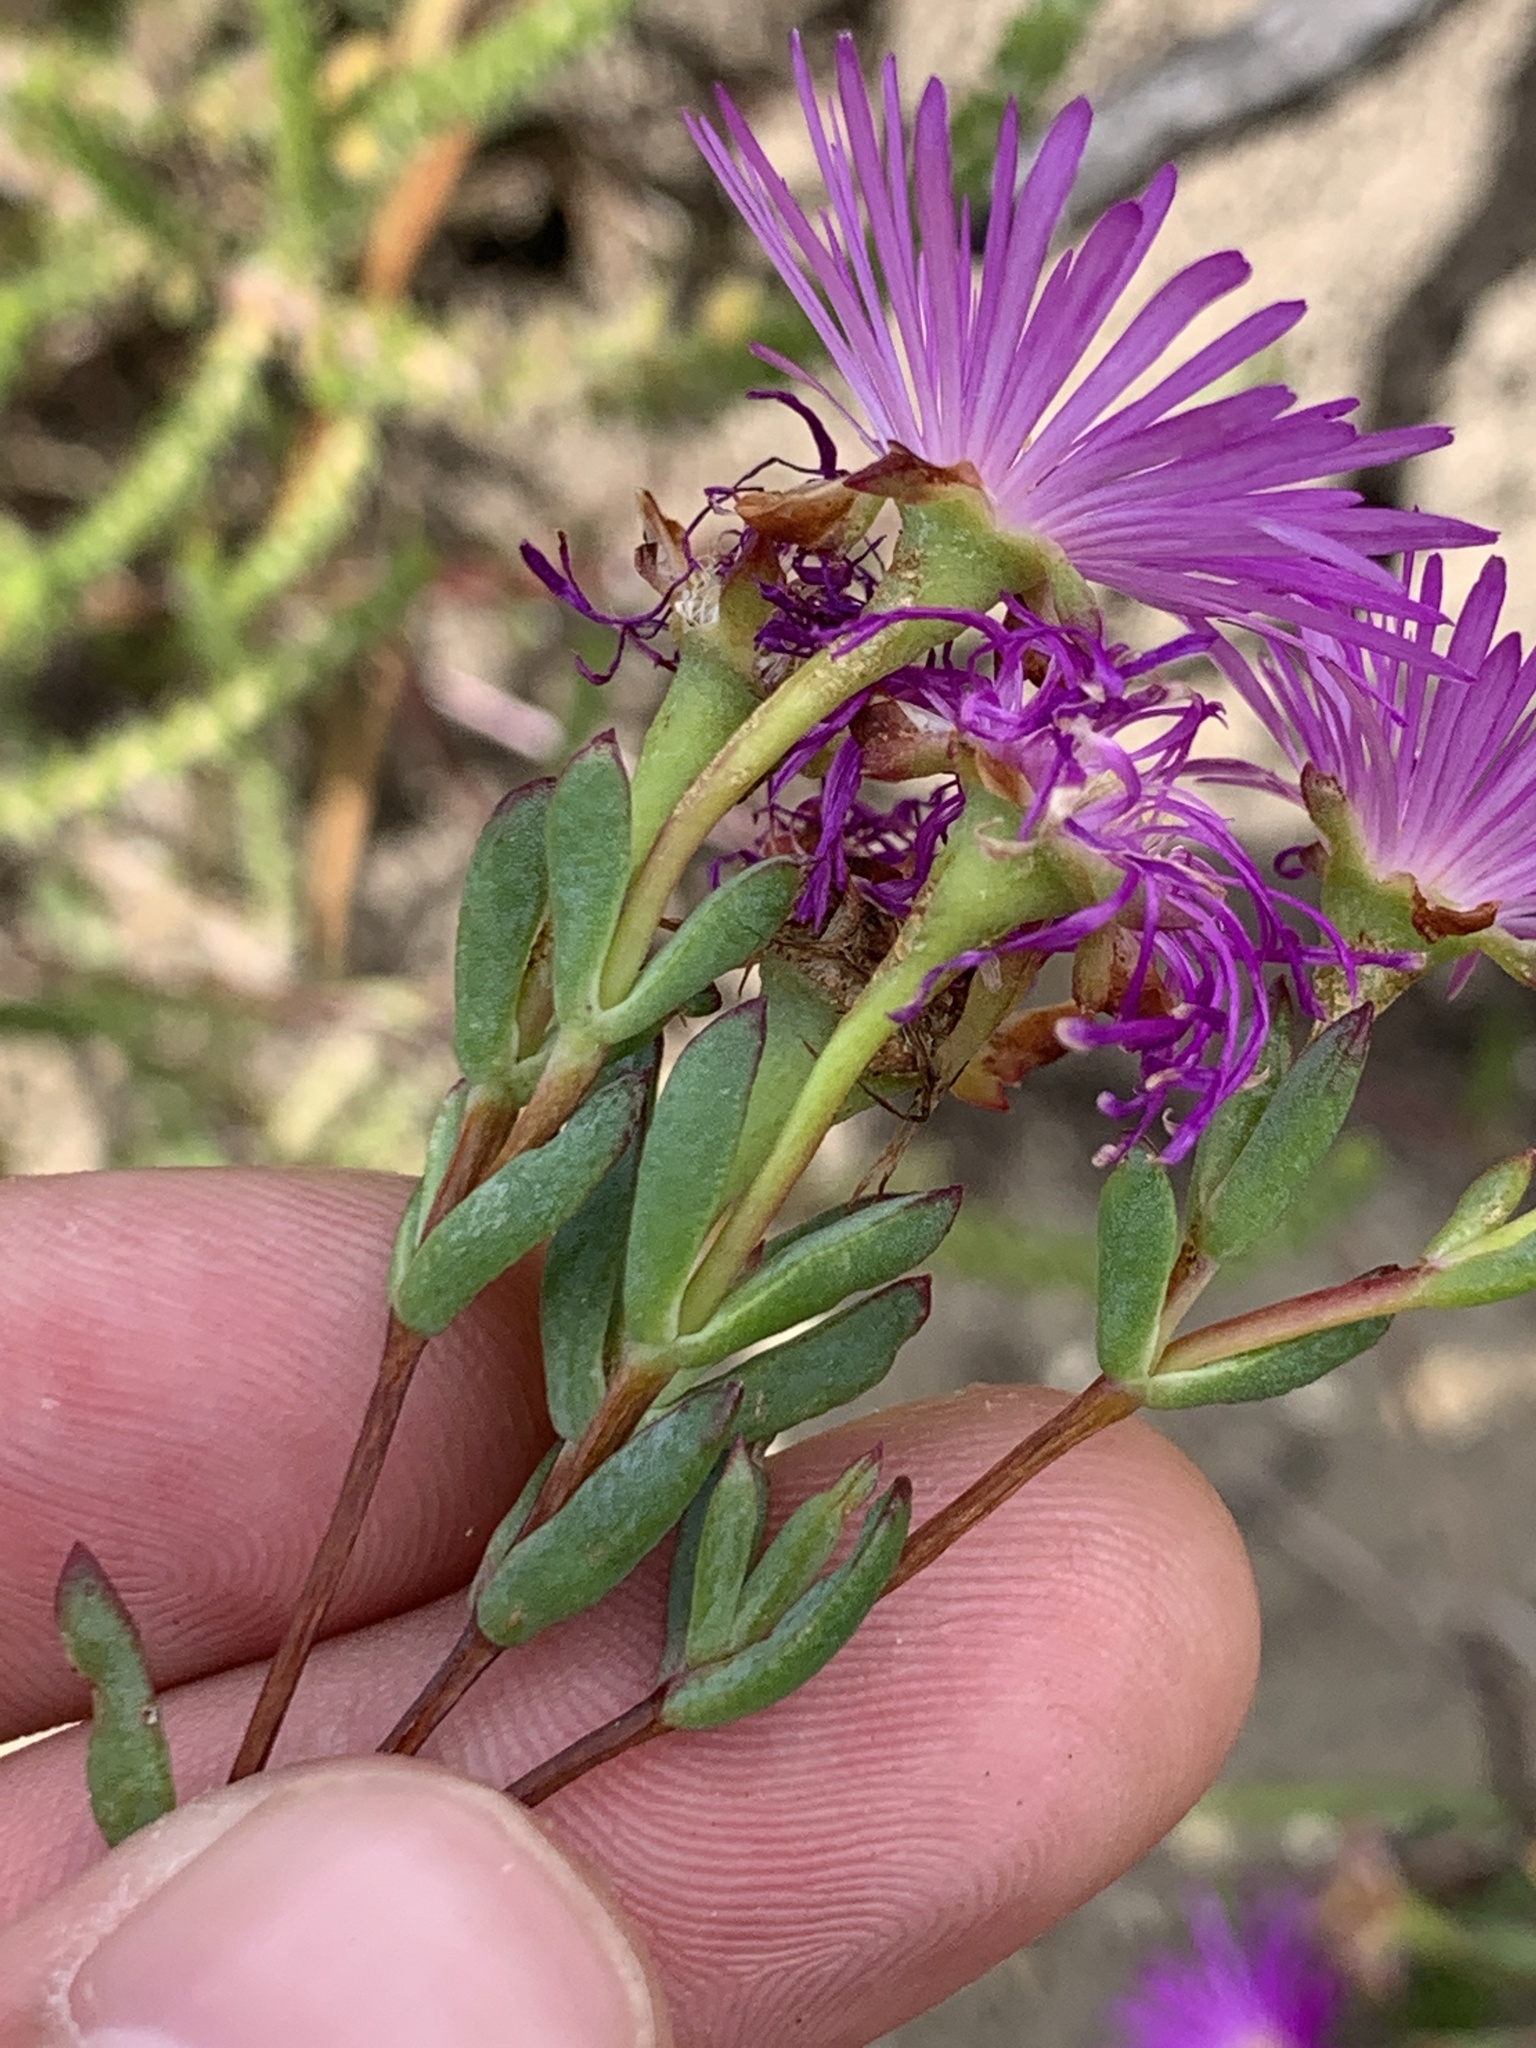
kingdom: Plantae
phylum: Tracheophyta
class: Magnoliopsida
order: Caryophyllales
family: Aizoaceae
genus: Lampranthus
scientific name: Lampranthus emarginatus
